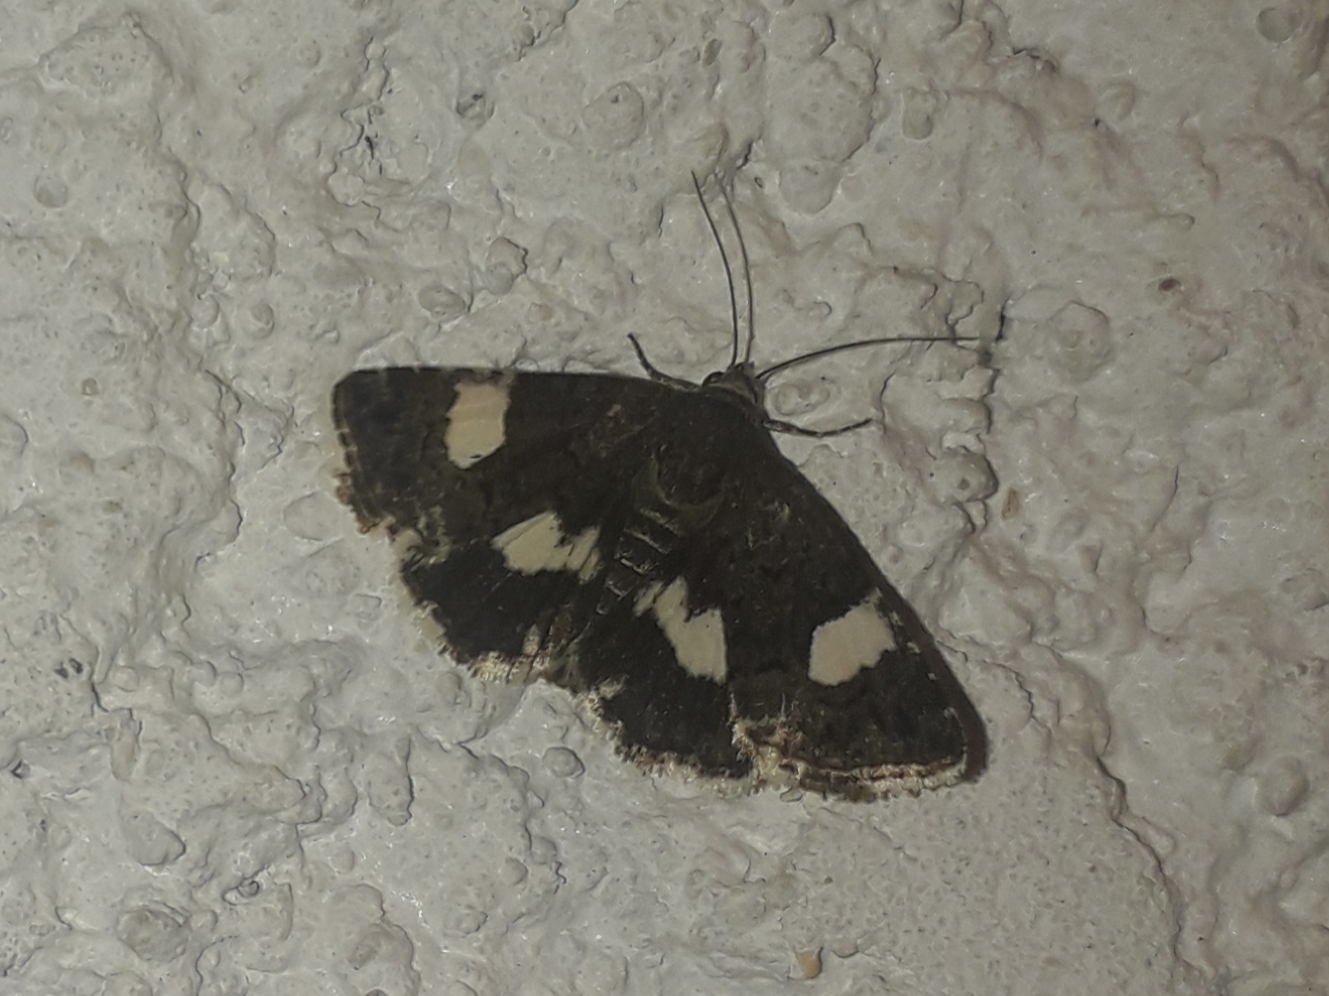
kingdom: Animalia
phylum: Arthropoda
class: Insecta
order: Lepidoptera
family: Erebidae
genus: Tyta
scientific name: Tyta luctuosa
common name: Four-spotted
